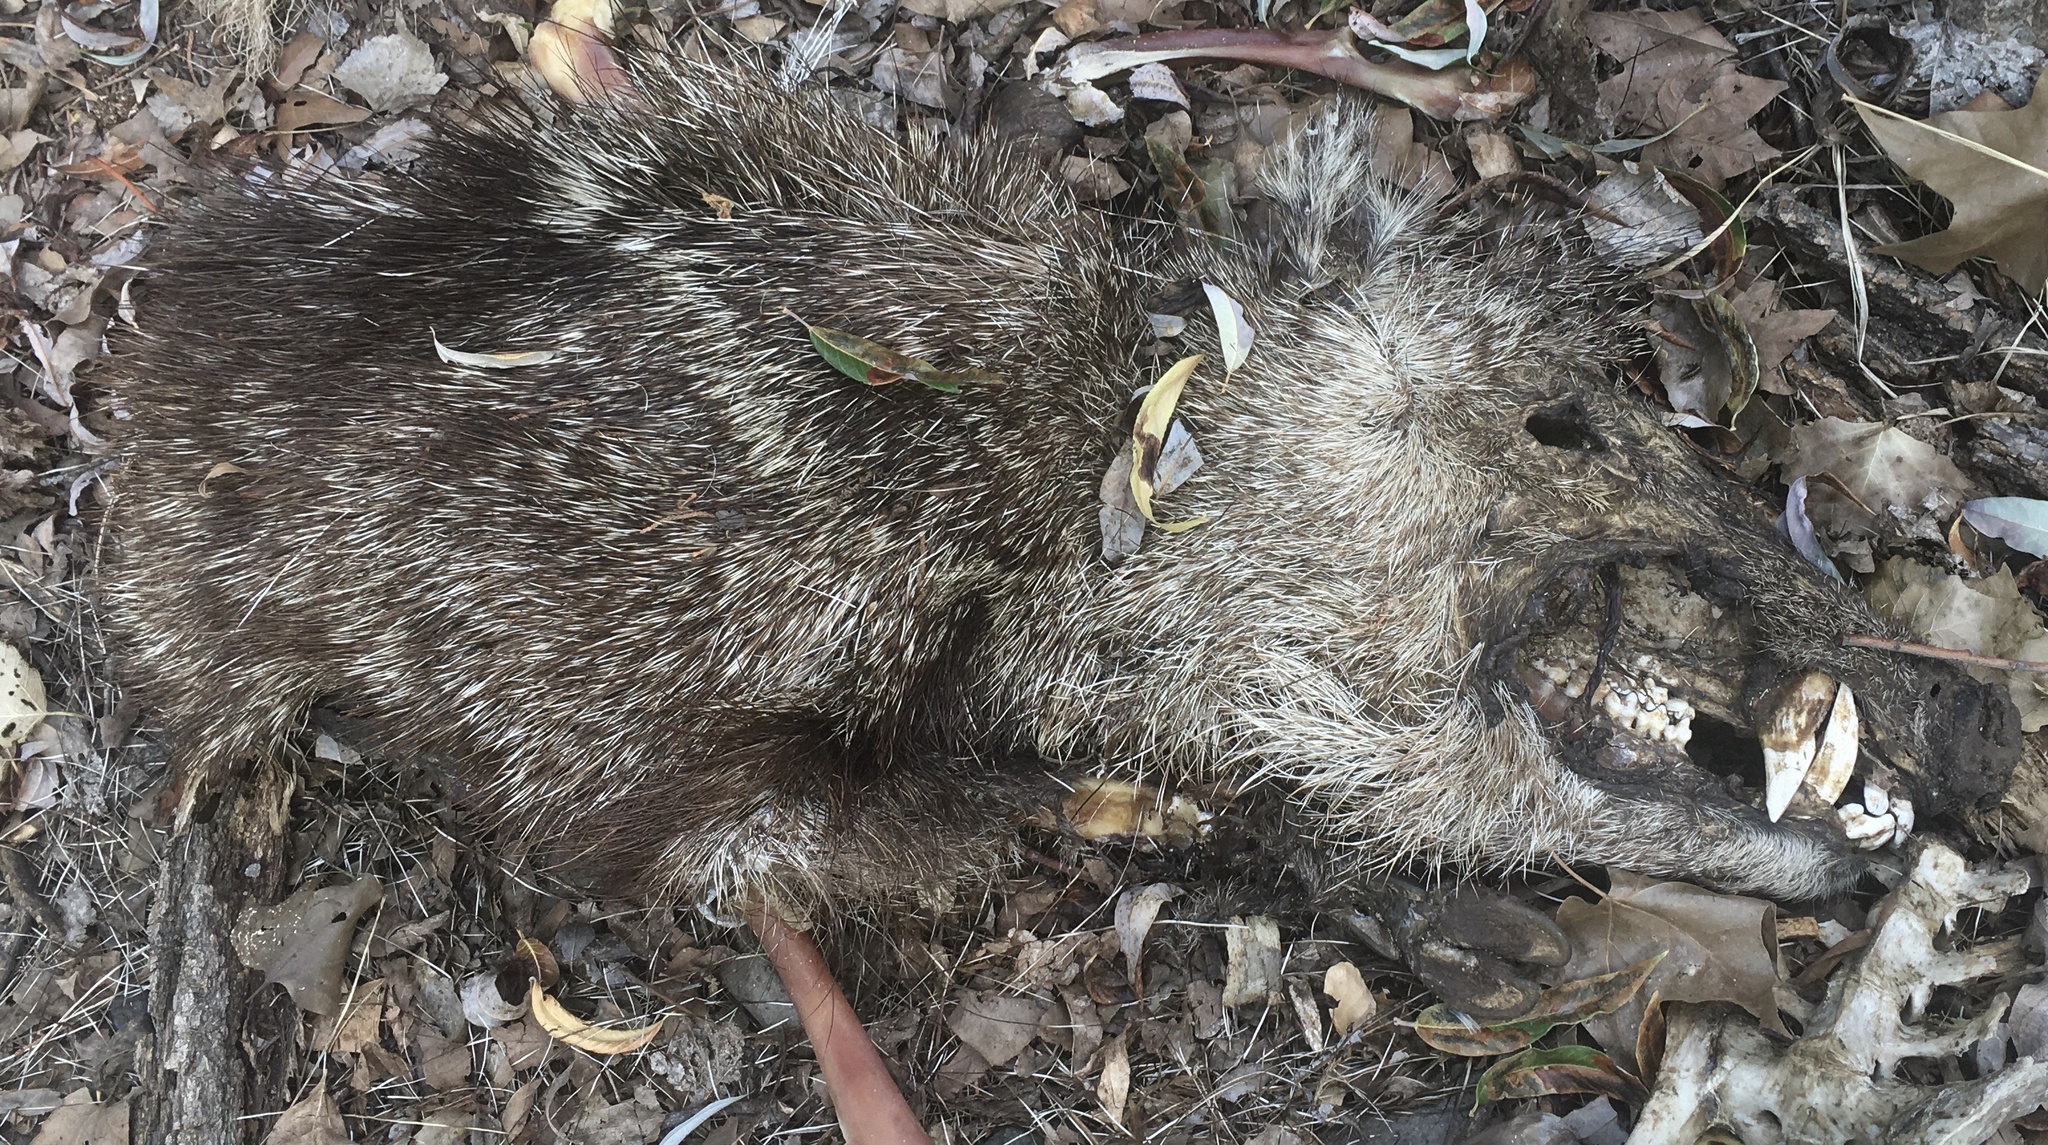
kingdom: Animalia
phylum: Chordata
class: Mammalia
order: Artiodactyla
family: Tayassuidae
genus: Pecari
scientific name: Pecari tajacu
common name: Collared peccary
